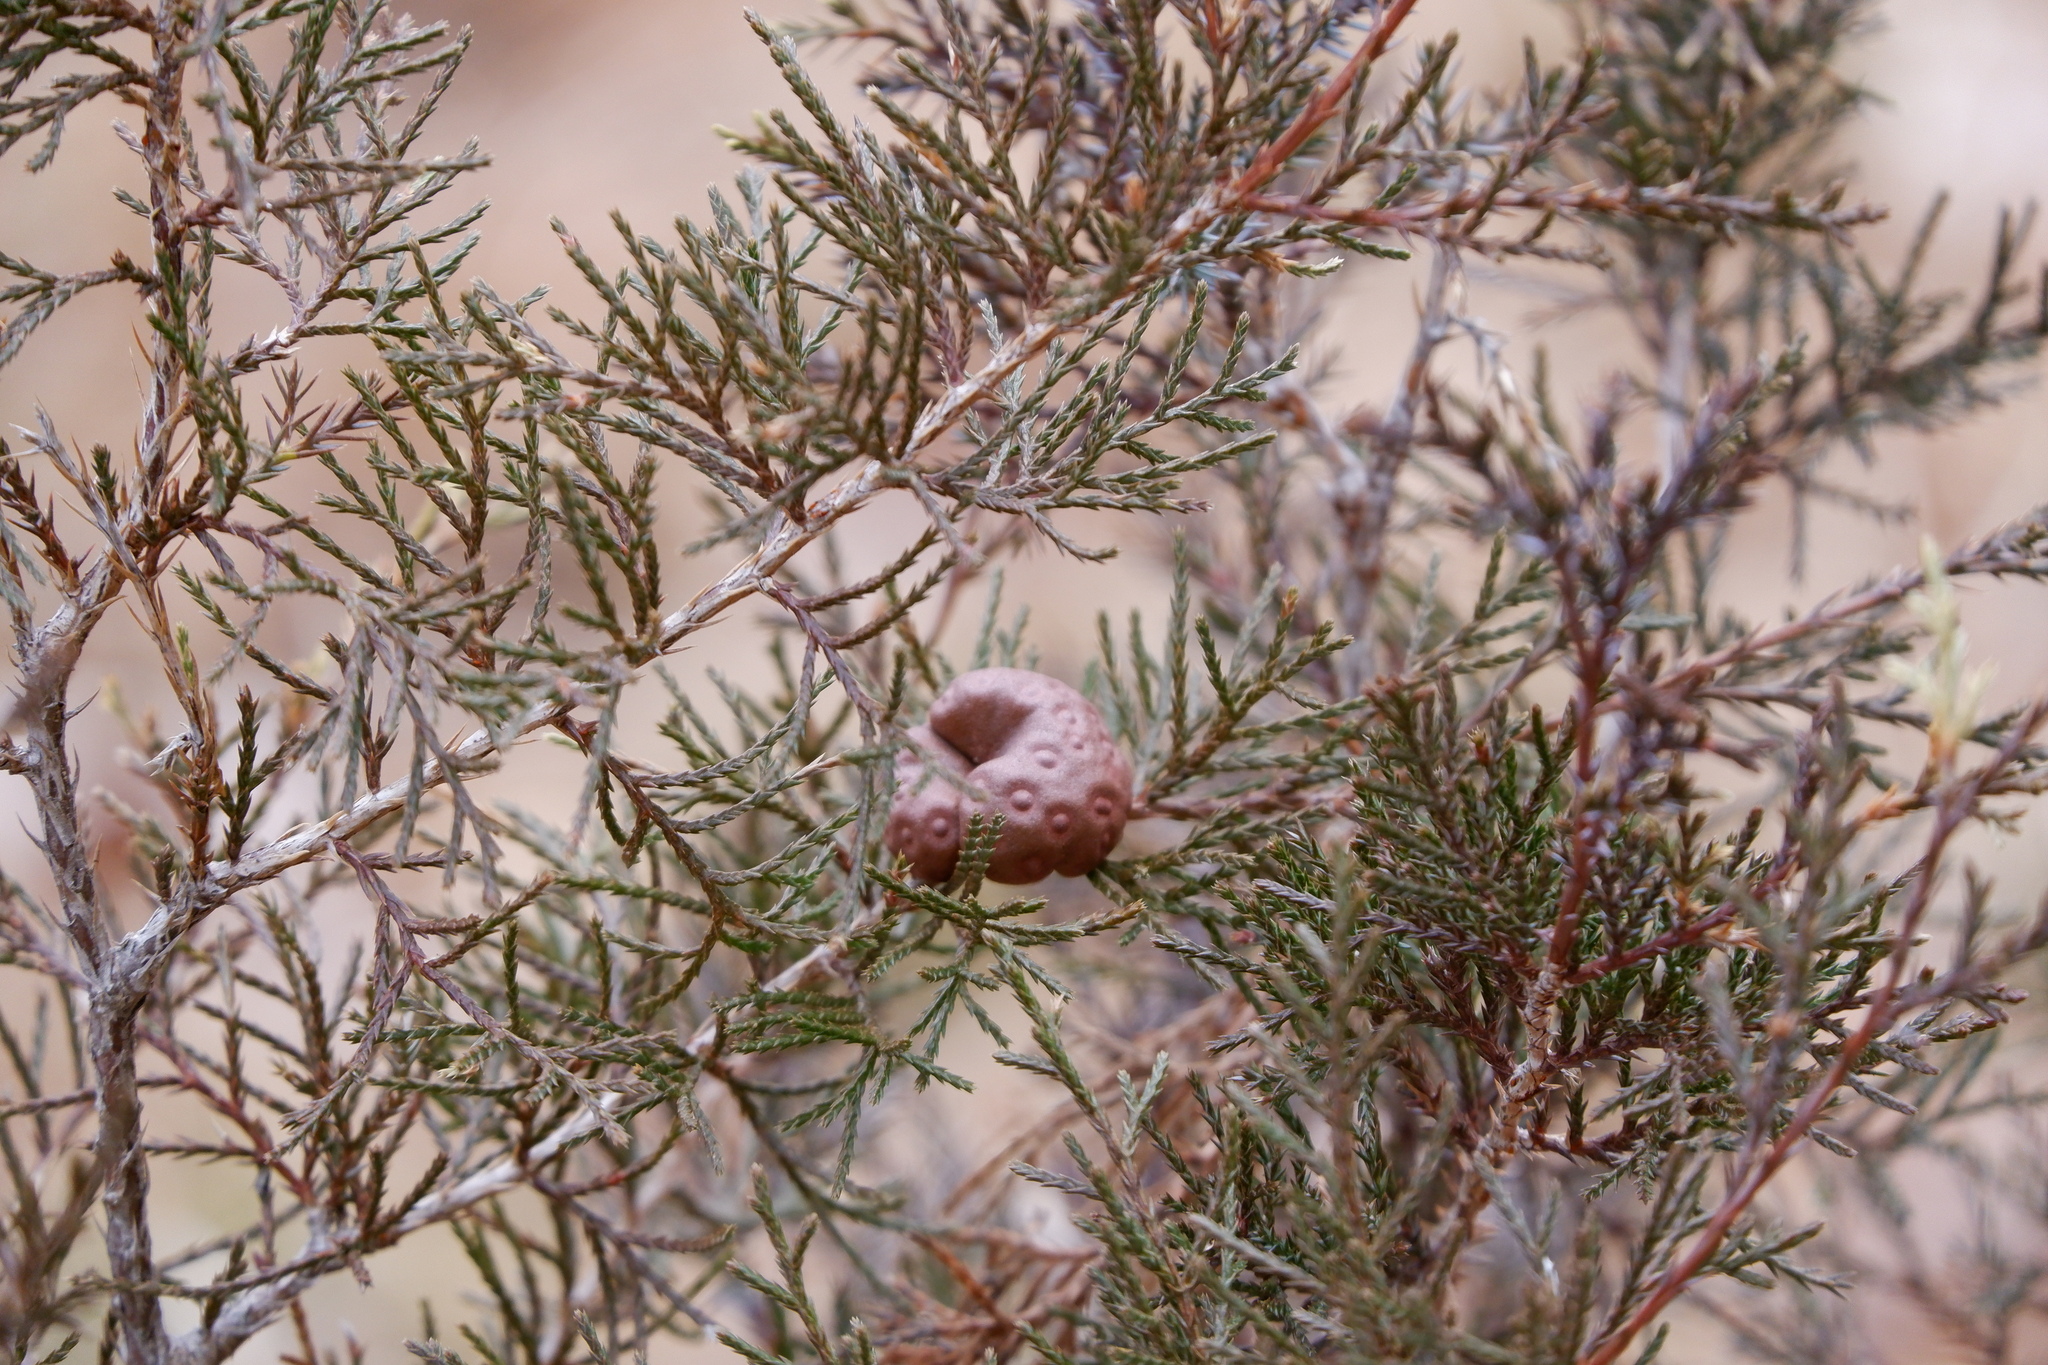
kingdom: Fungi
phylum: Basidiomycota
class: Pucciniomycetes
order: Pucciniales
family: Gymnosporangiaceae
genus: Gymnosporangium
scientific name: Gymnosporangium juniperi-virginianae
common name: Juniper-apple rust
